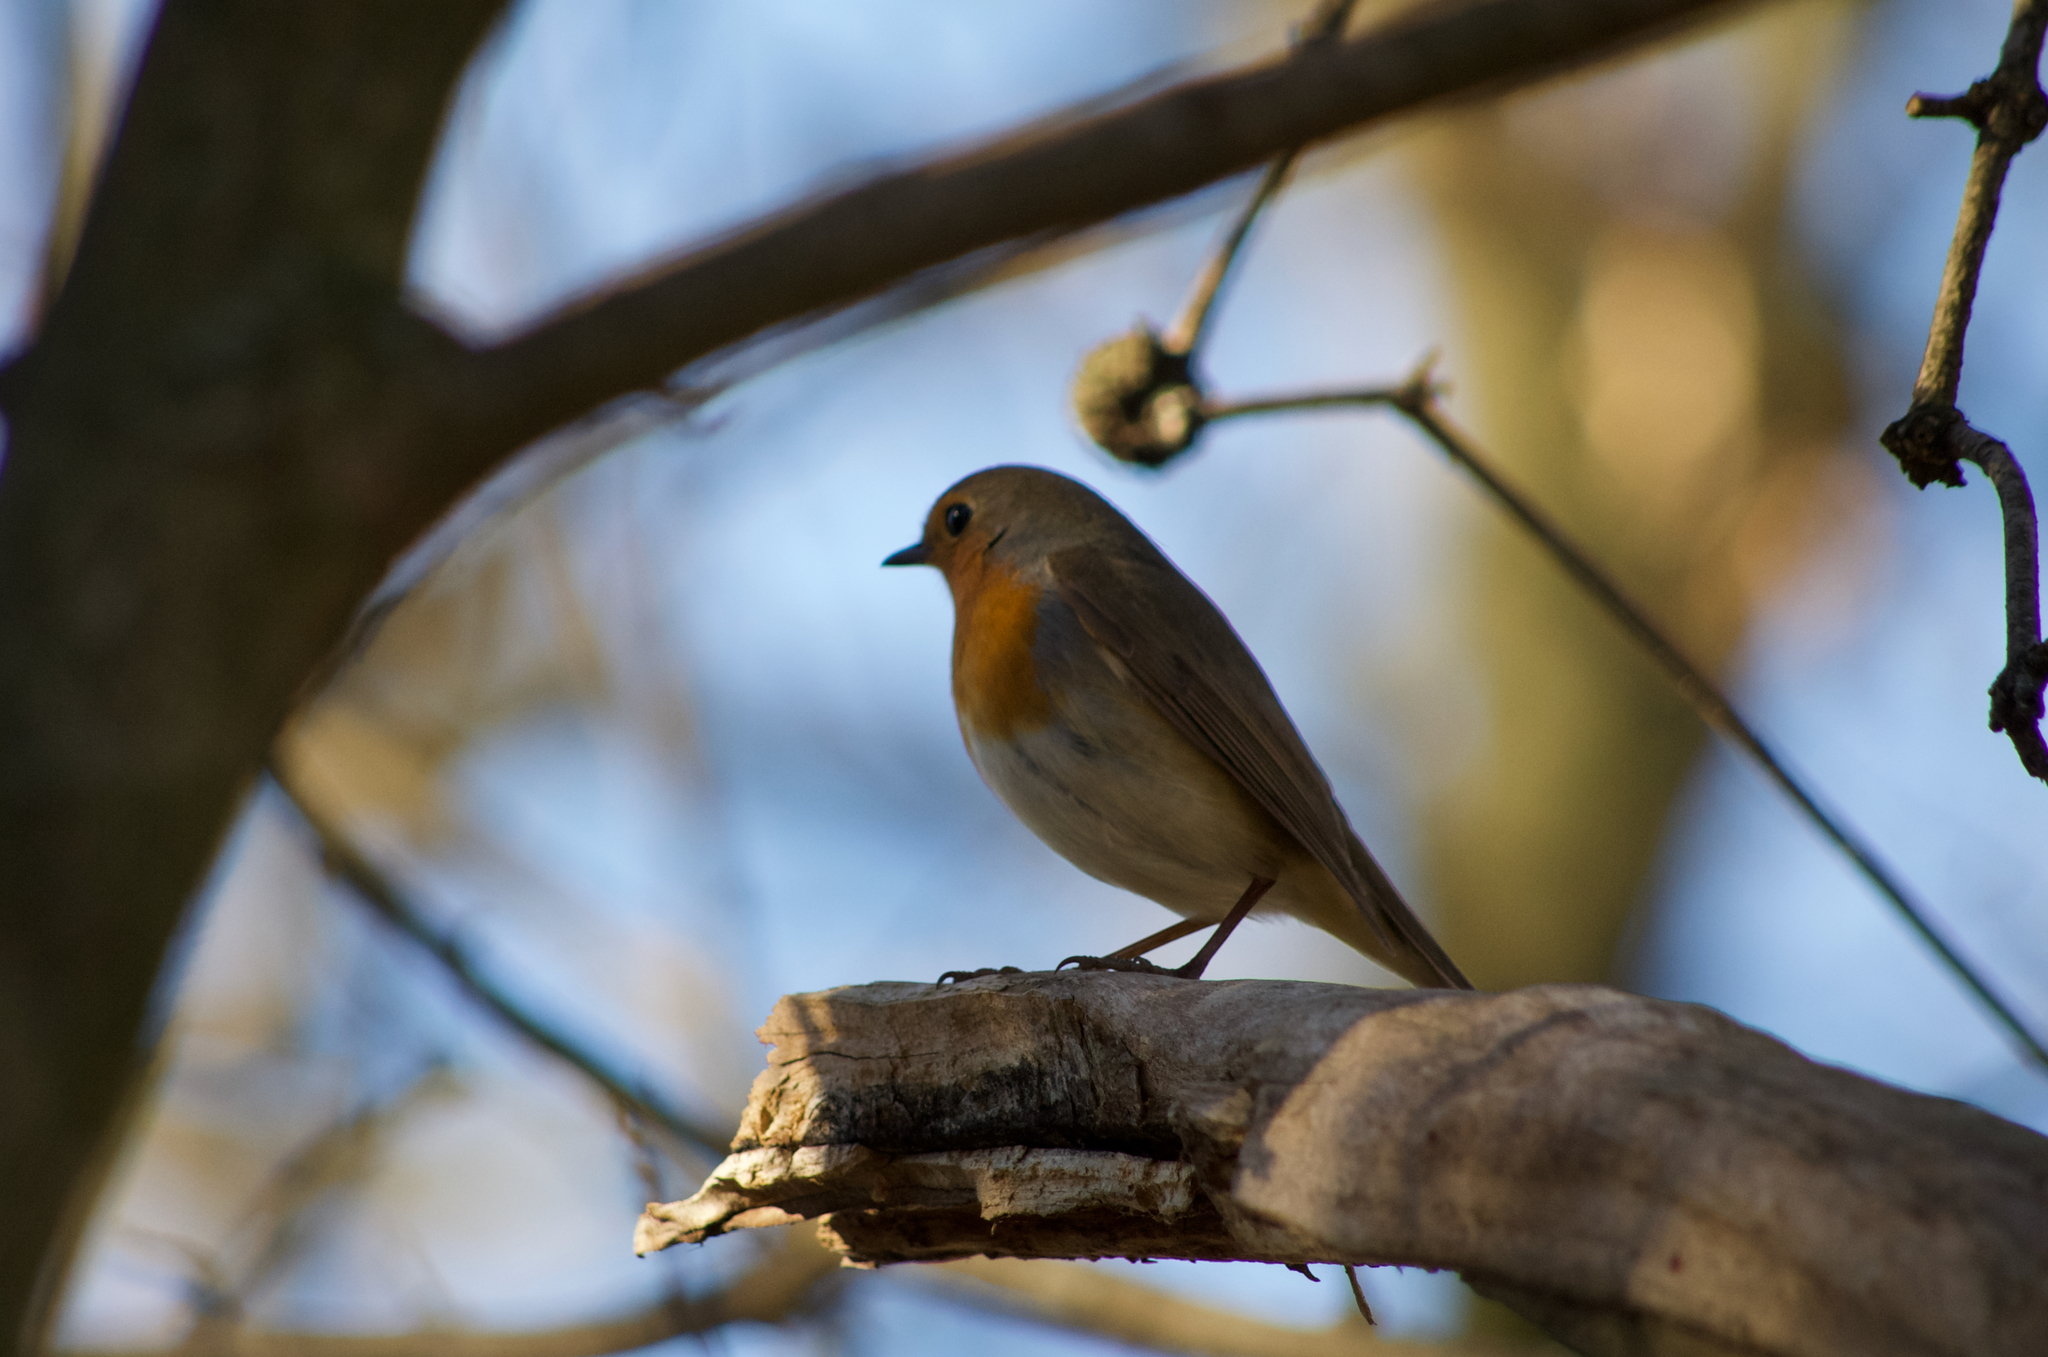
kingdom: Animalia
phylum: Chordata
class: Aves
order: Passeriformes
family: Muscicapidae
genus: Erithacus
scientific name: Erithacus rubecula
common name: European robin
